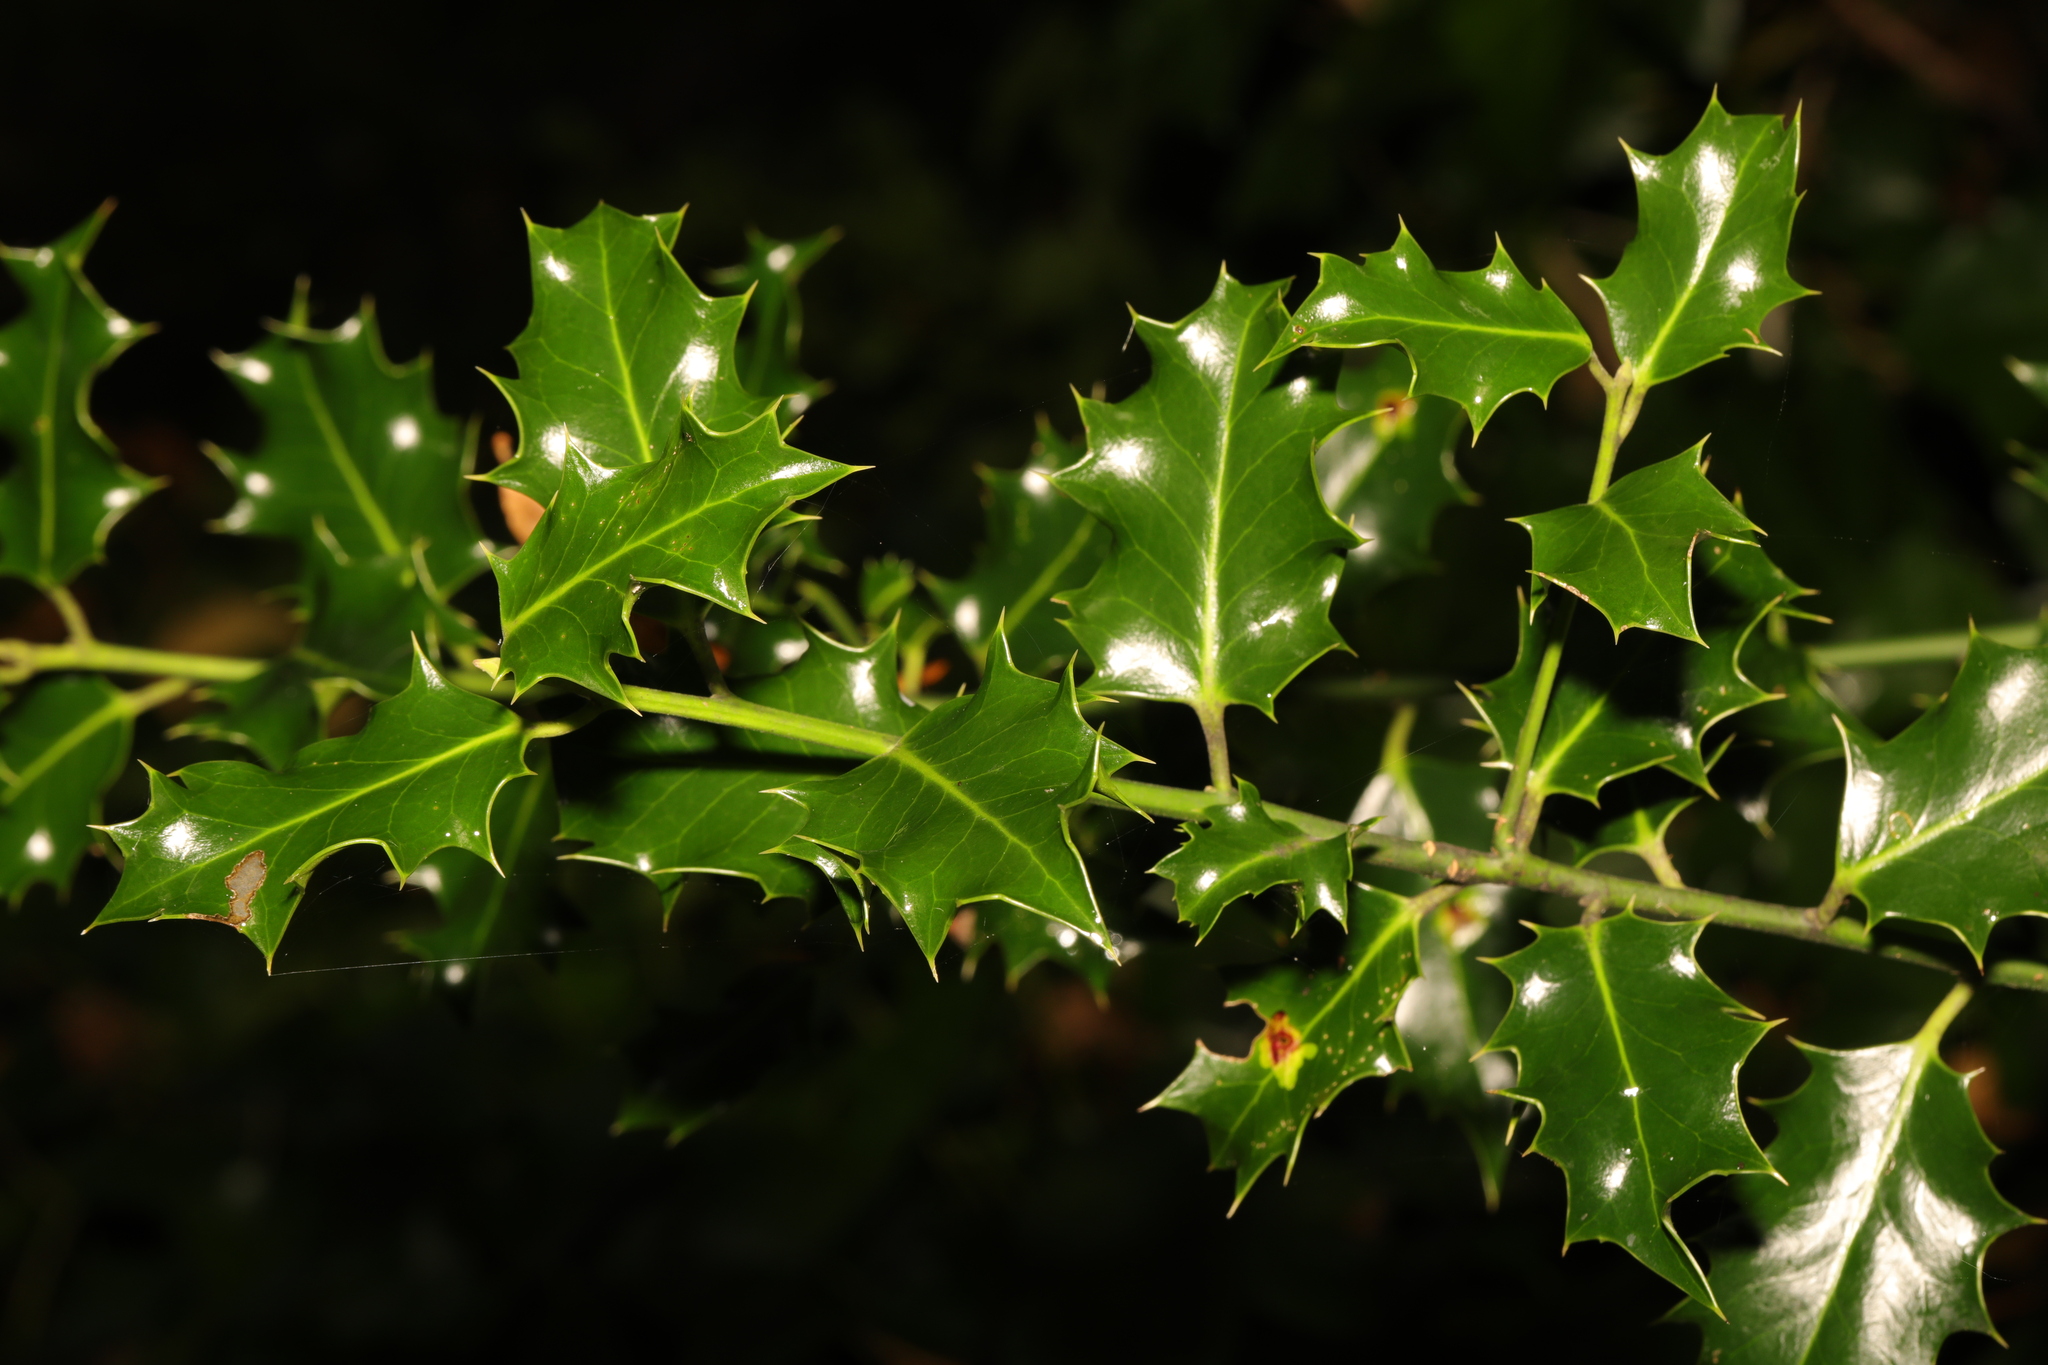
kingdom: Plantae
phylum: Tracheophyta
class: Magnoliopsida
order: Aquifoliales
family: Aquifoliaceae
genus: Ilex
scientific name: Ilex aquifolium
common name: English holly
